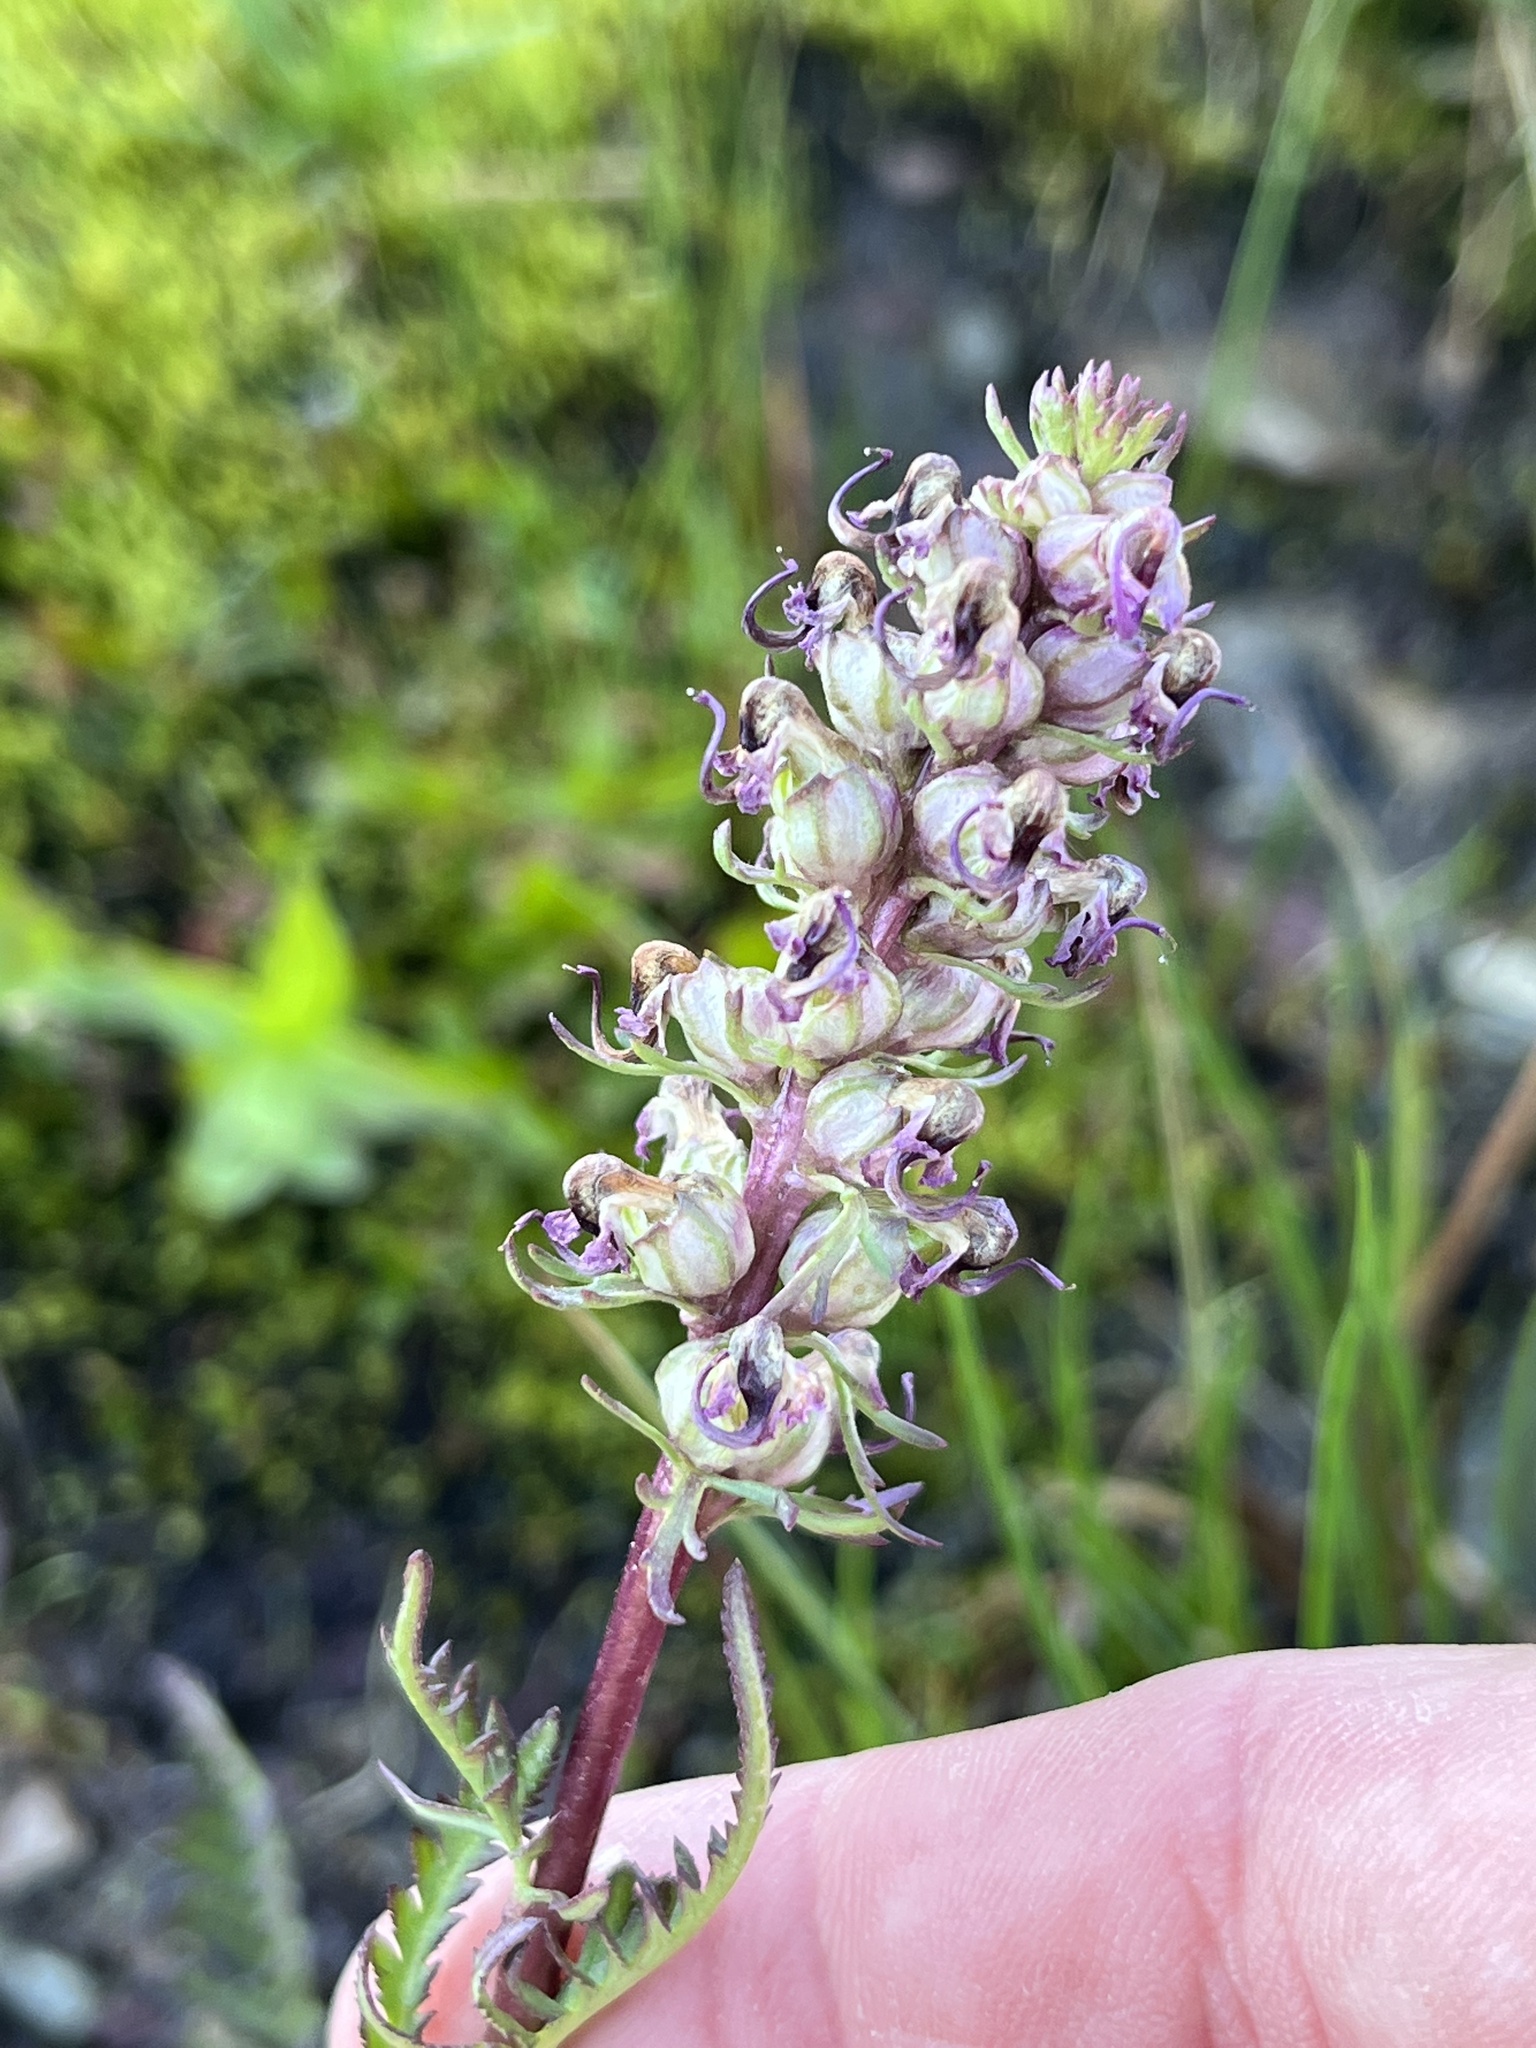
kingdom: Plantae
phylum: Tracheophyta
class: Magnoliopsida
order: Lamiales
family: Orobanchaceae
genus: Pedicularis
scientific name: Pedicularis groenlandica
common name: Elephant's-head
